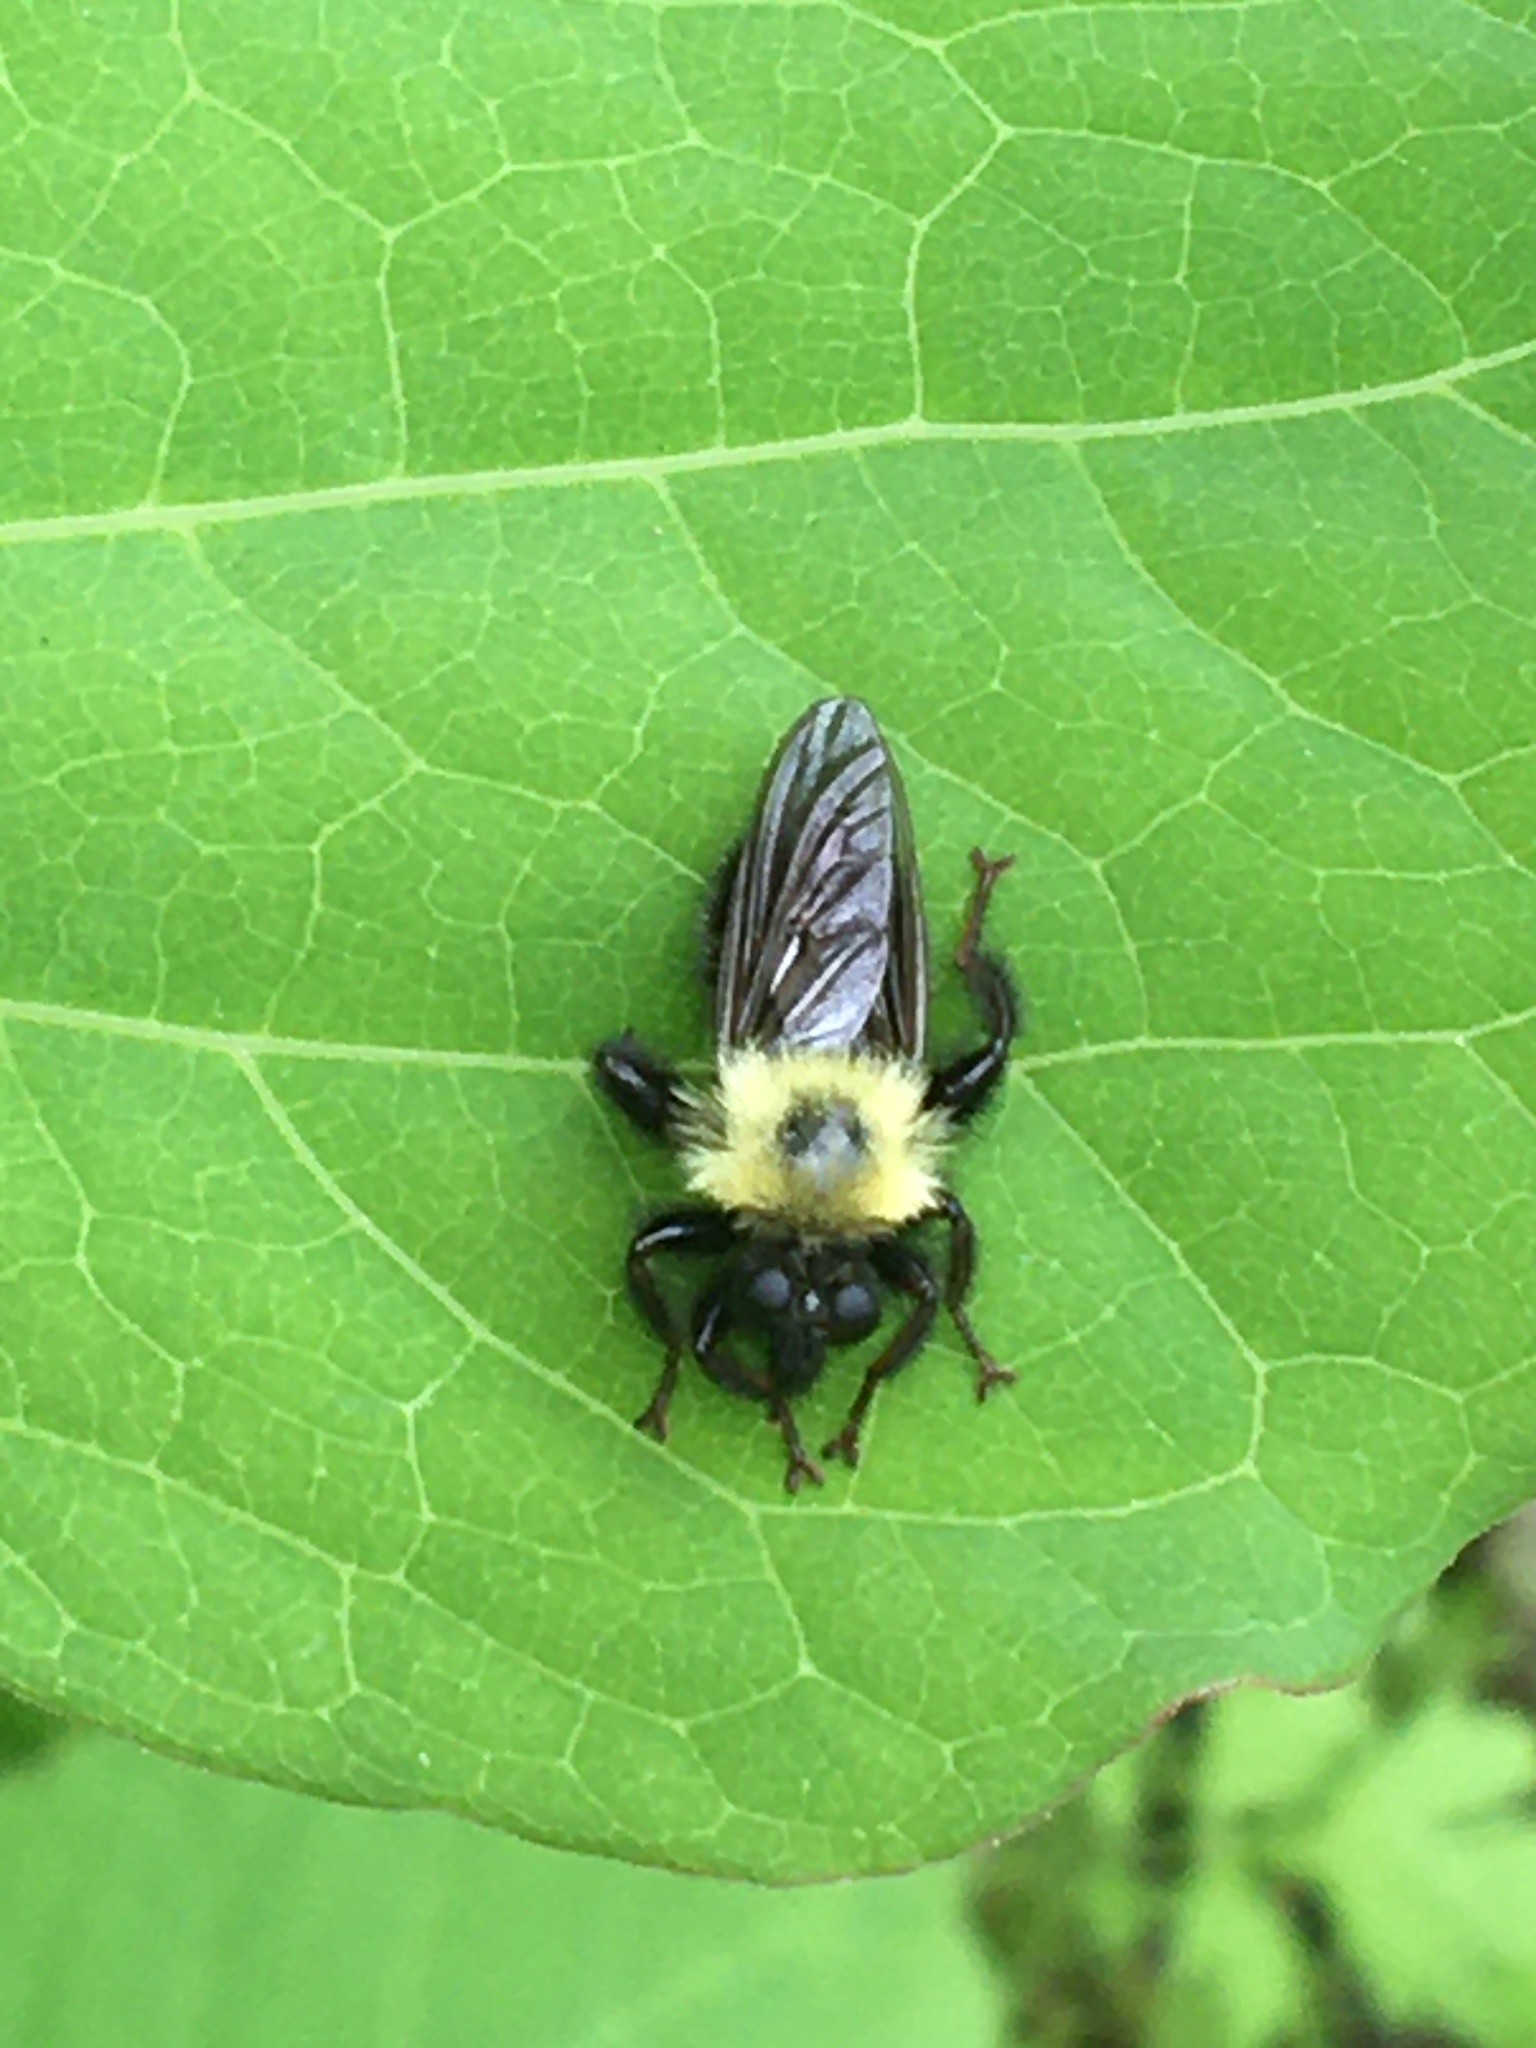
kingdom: Animalia
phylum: Arthropoda
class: Insecta
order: Diptera
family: Asilidae
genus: Laphria
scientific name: Laphria thoracica
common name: Bumble bee mimic robber fly
